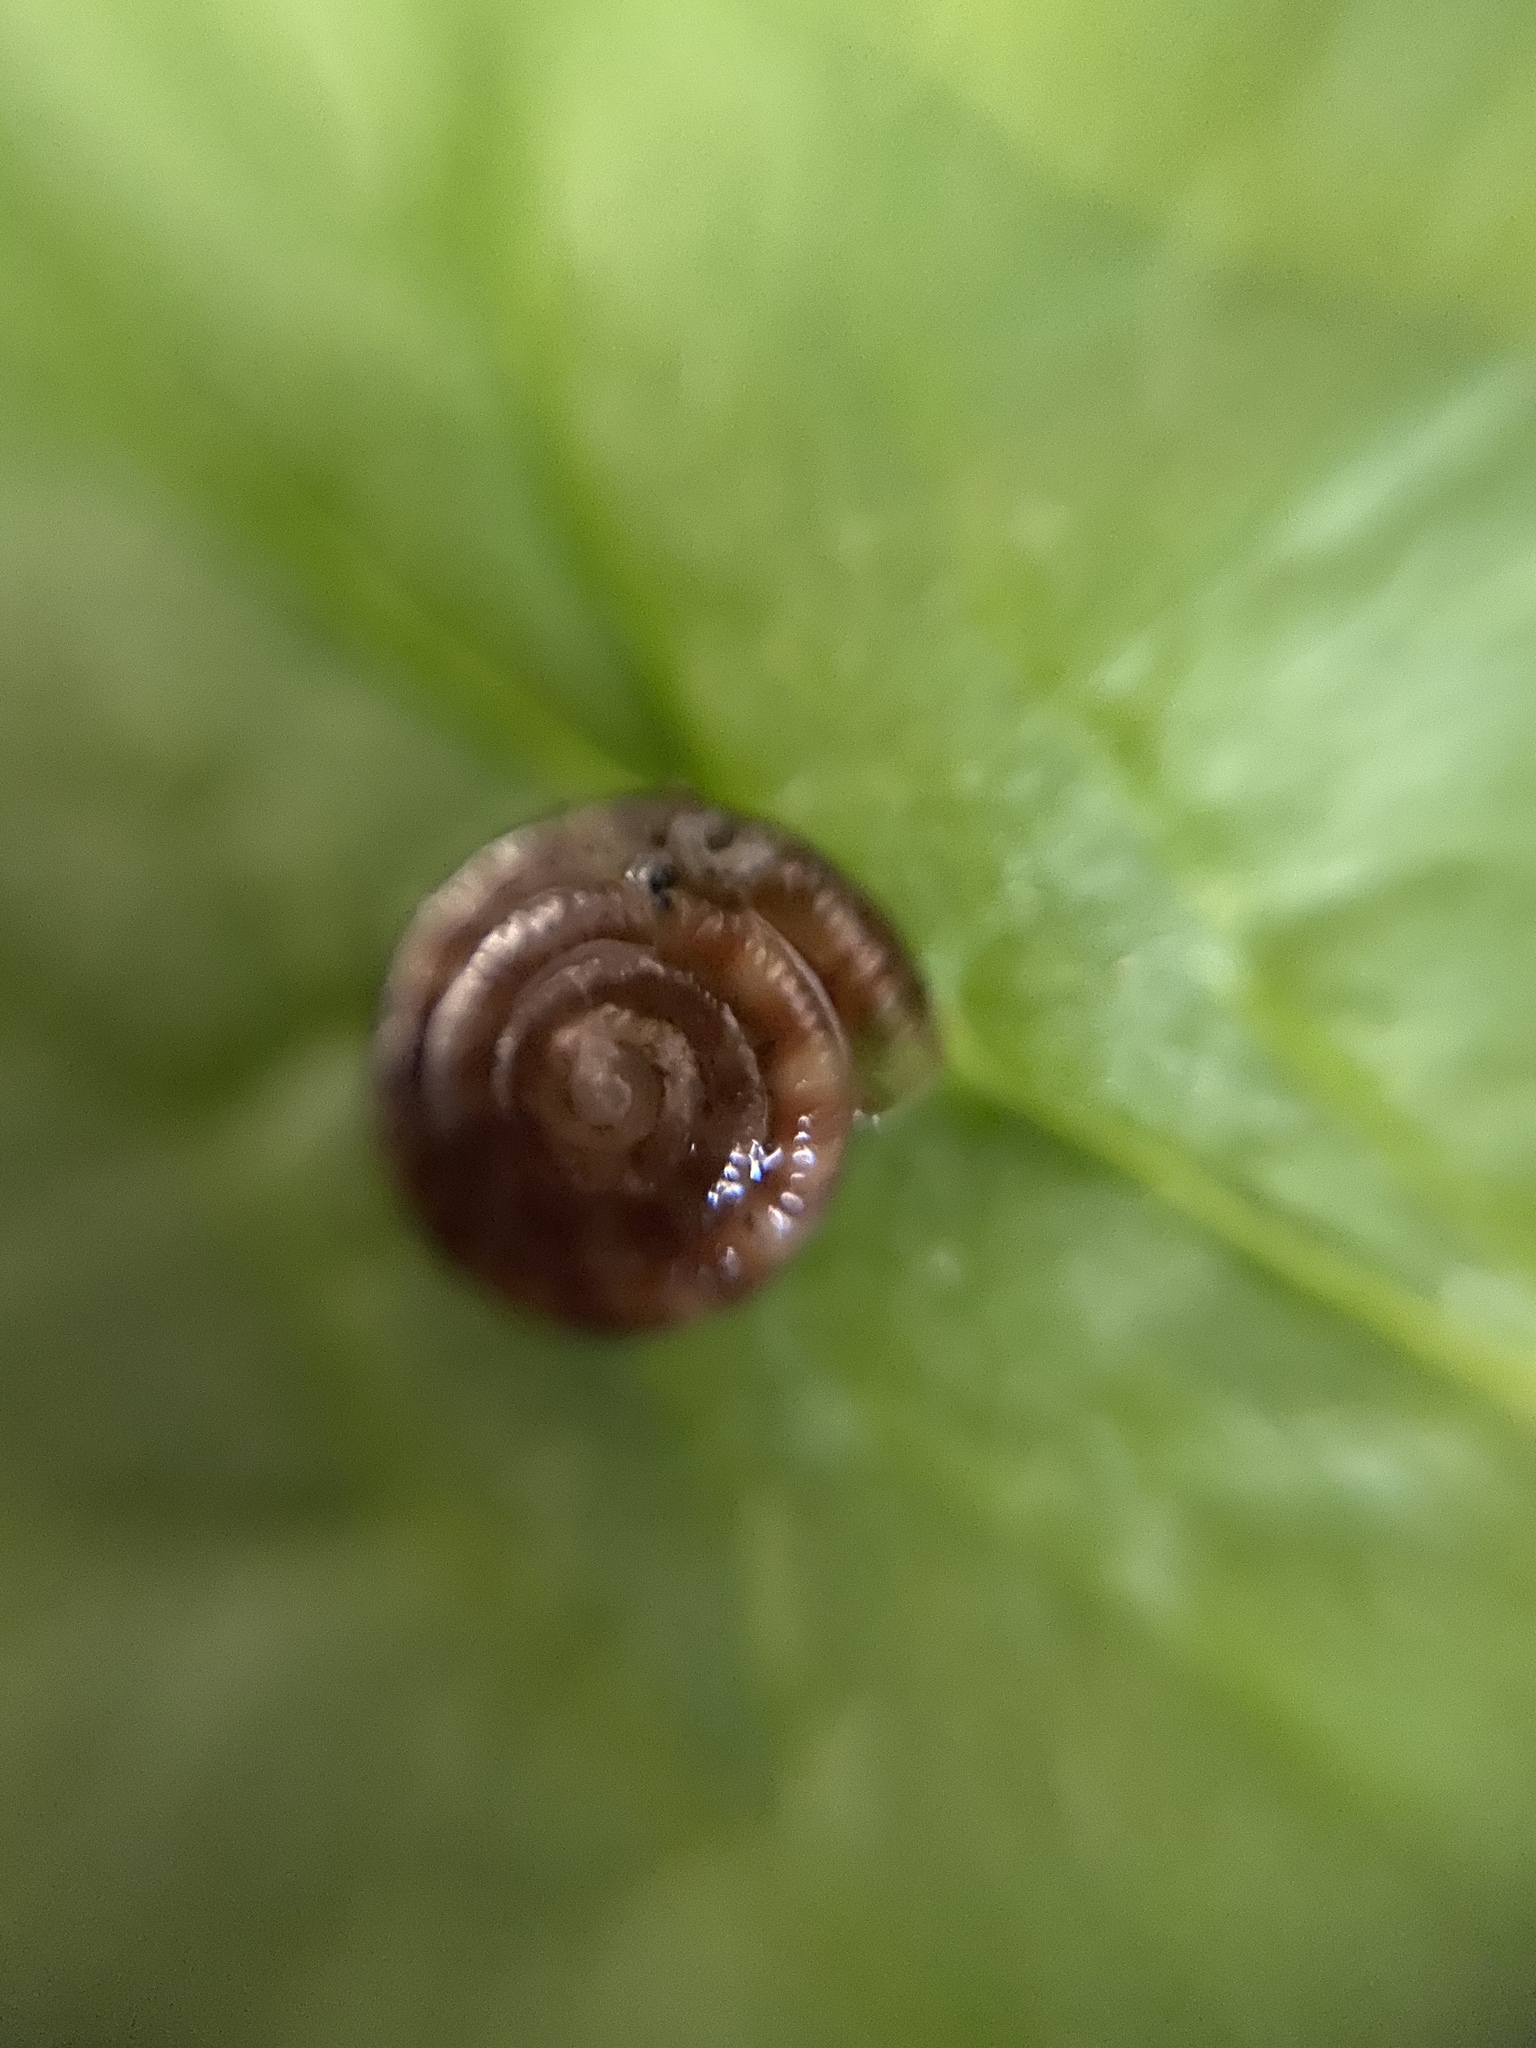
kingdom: Animalia
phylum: Mollusca
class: Gastropoda
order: Stylommatophora
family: Discidae
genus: Discus
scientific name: Discus rotundatus
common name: Rounded snail
